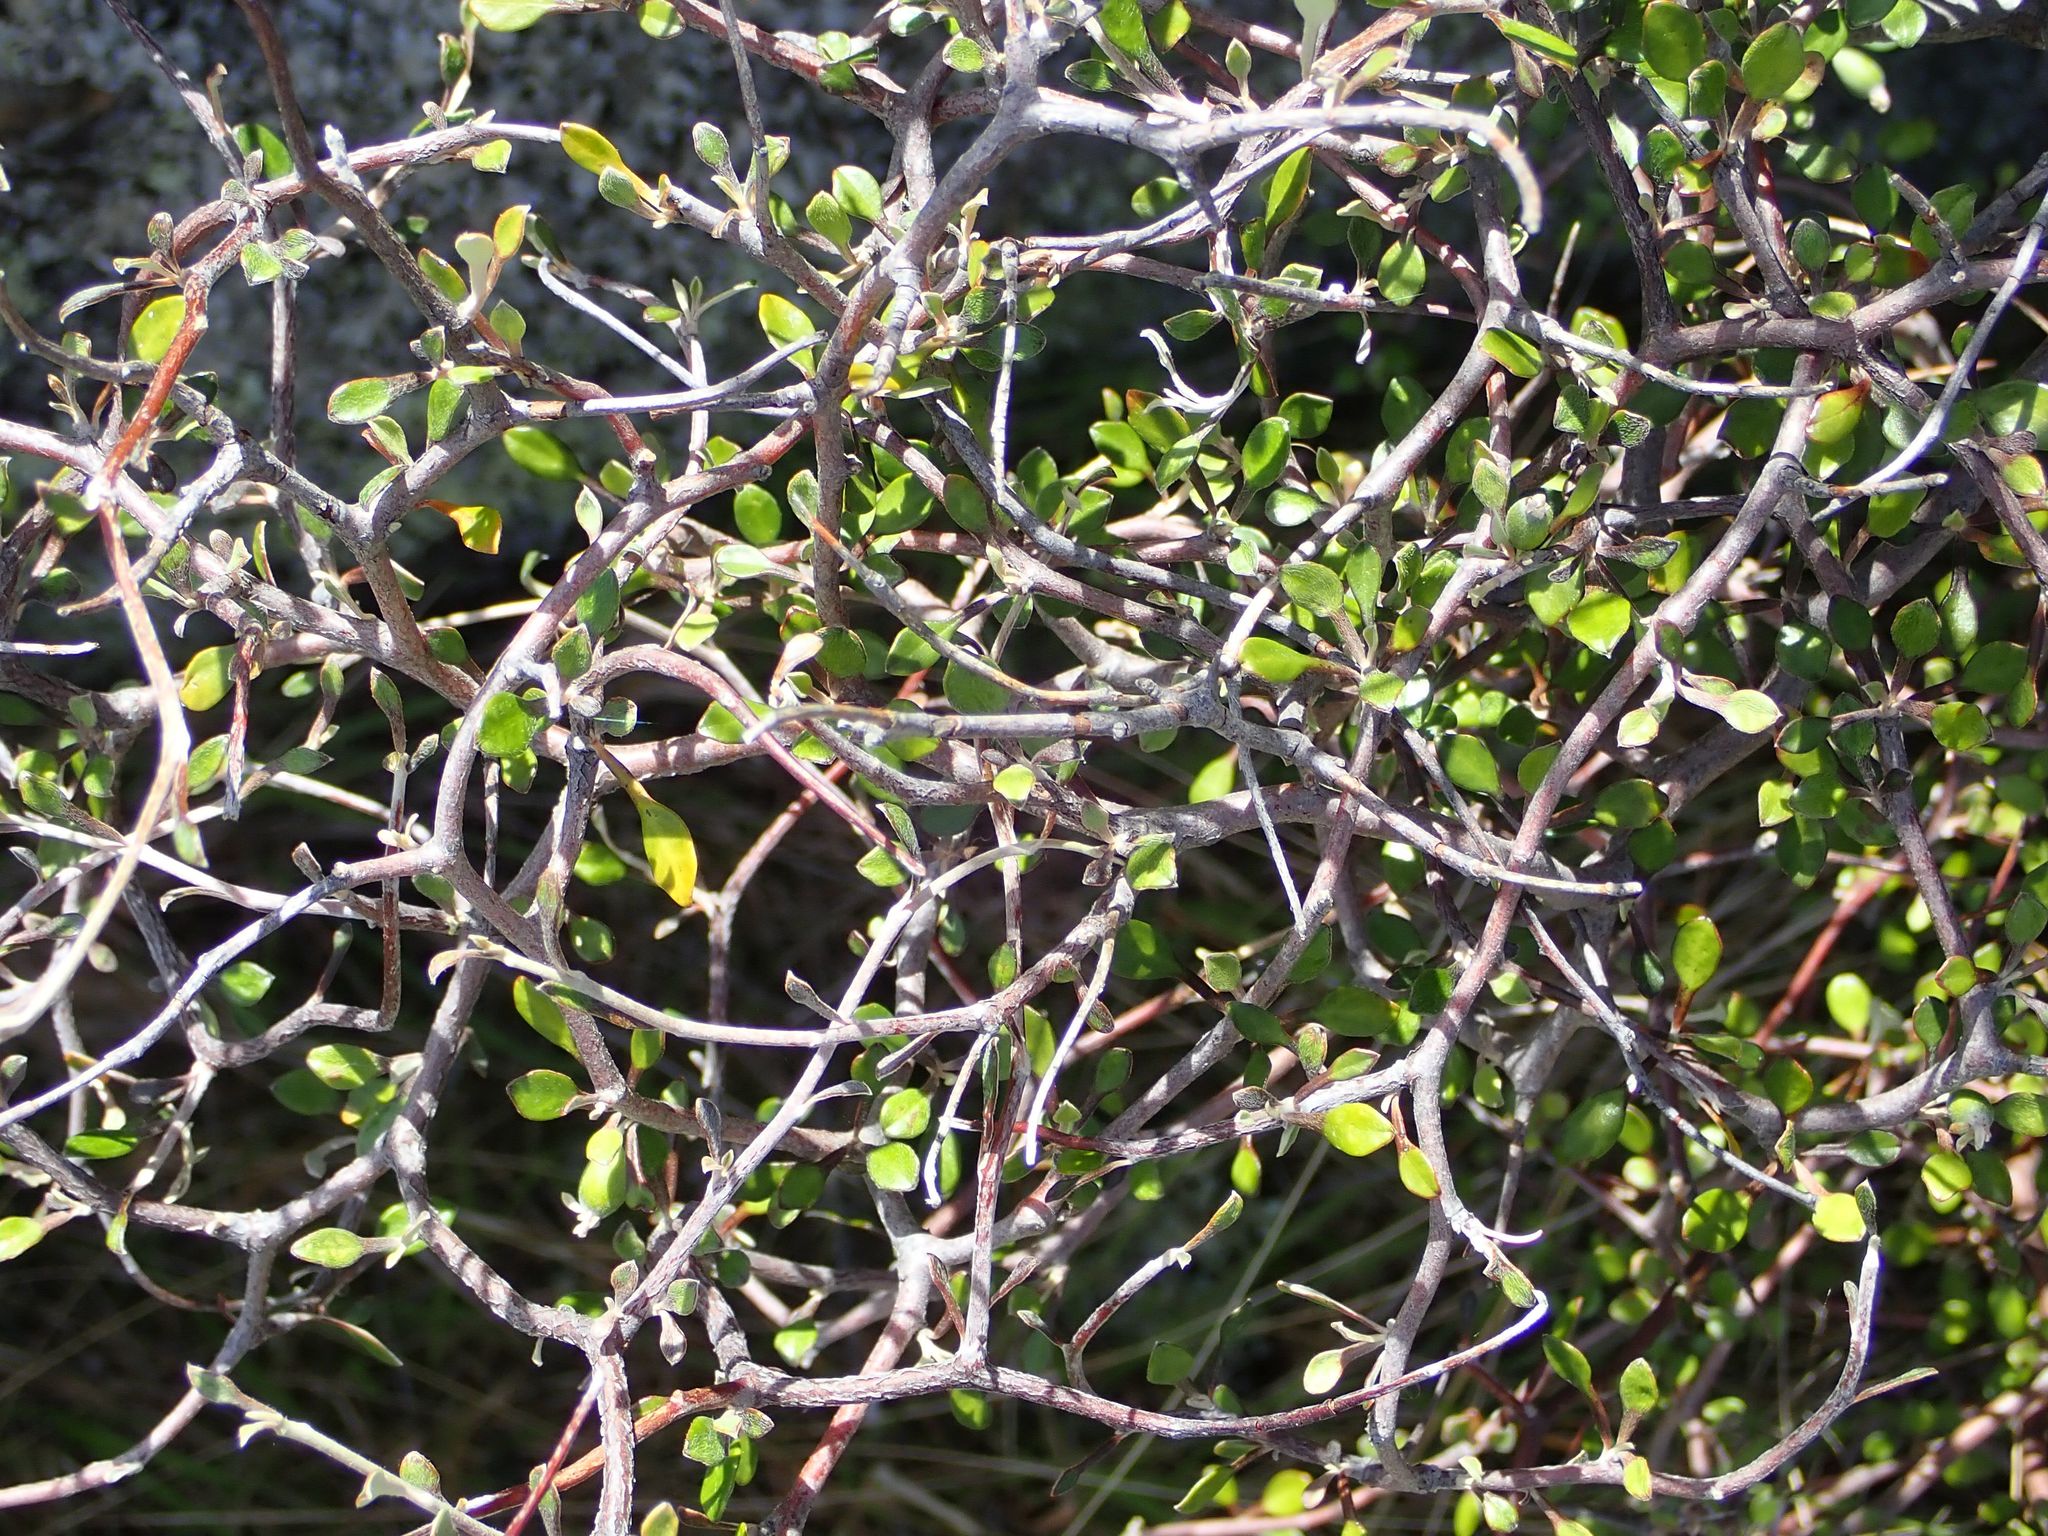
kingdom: Plantae
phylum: Tracheophyta
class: Magnoliopsida
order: Asterales
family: Argophyllaceae
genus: Corokia
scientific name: Corokia cotoneaster
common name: Wire nettingbush
